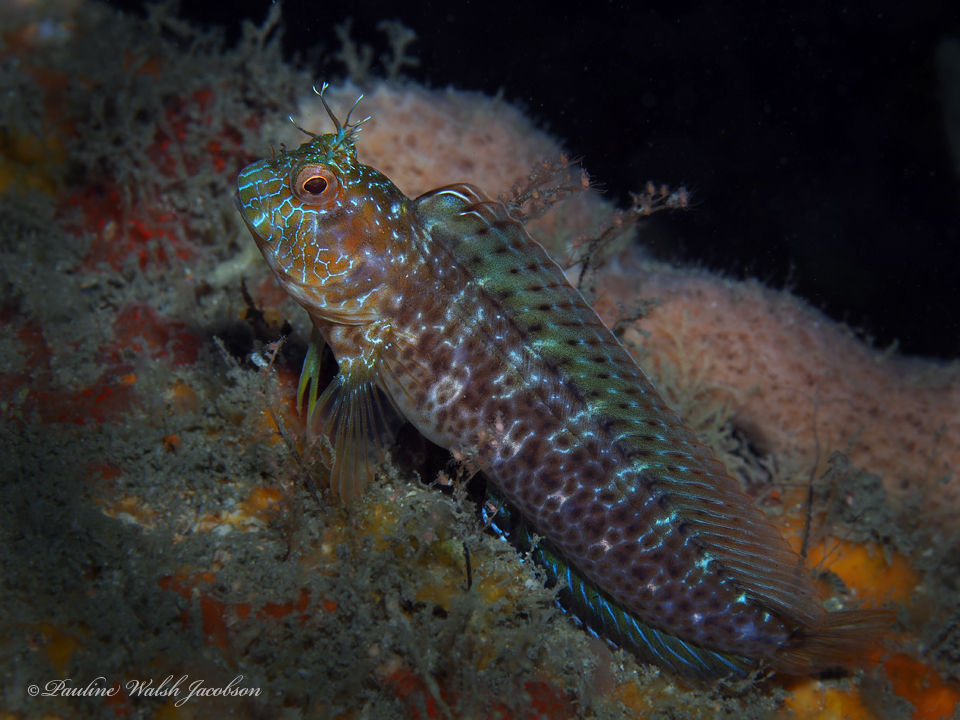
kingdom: Animalia
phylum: Chordata
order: Perciformes
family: Blenniidae
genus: Parablennius
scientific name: Parablennius marmoreus
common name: Seaweed blenny
